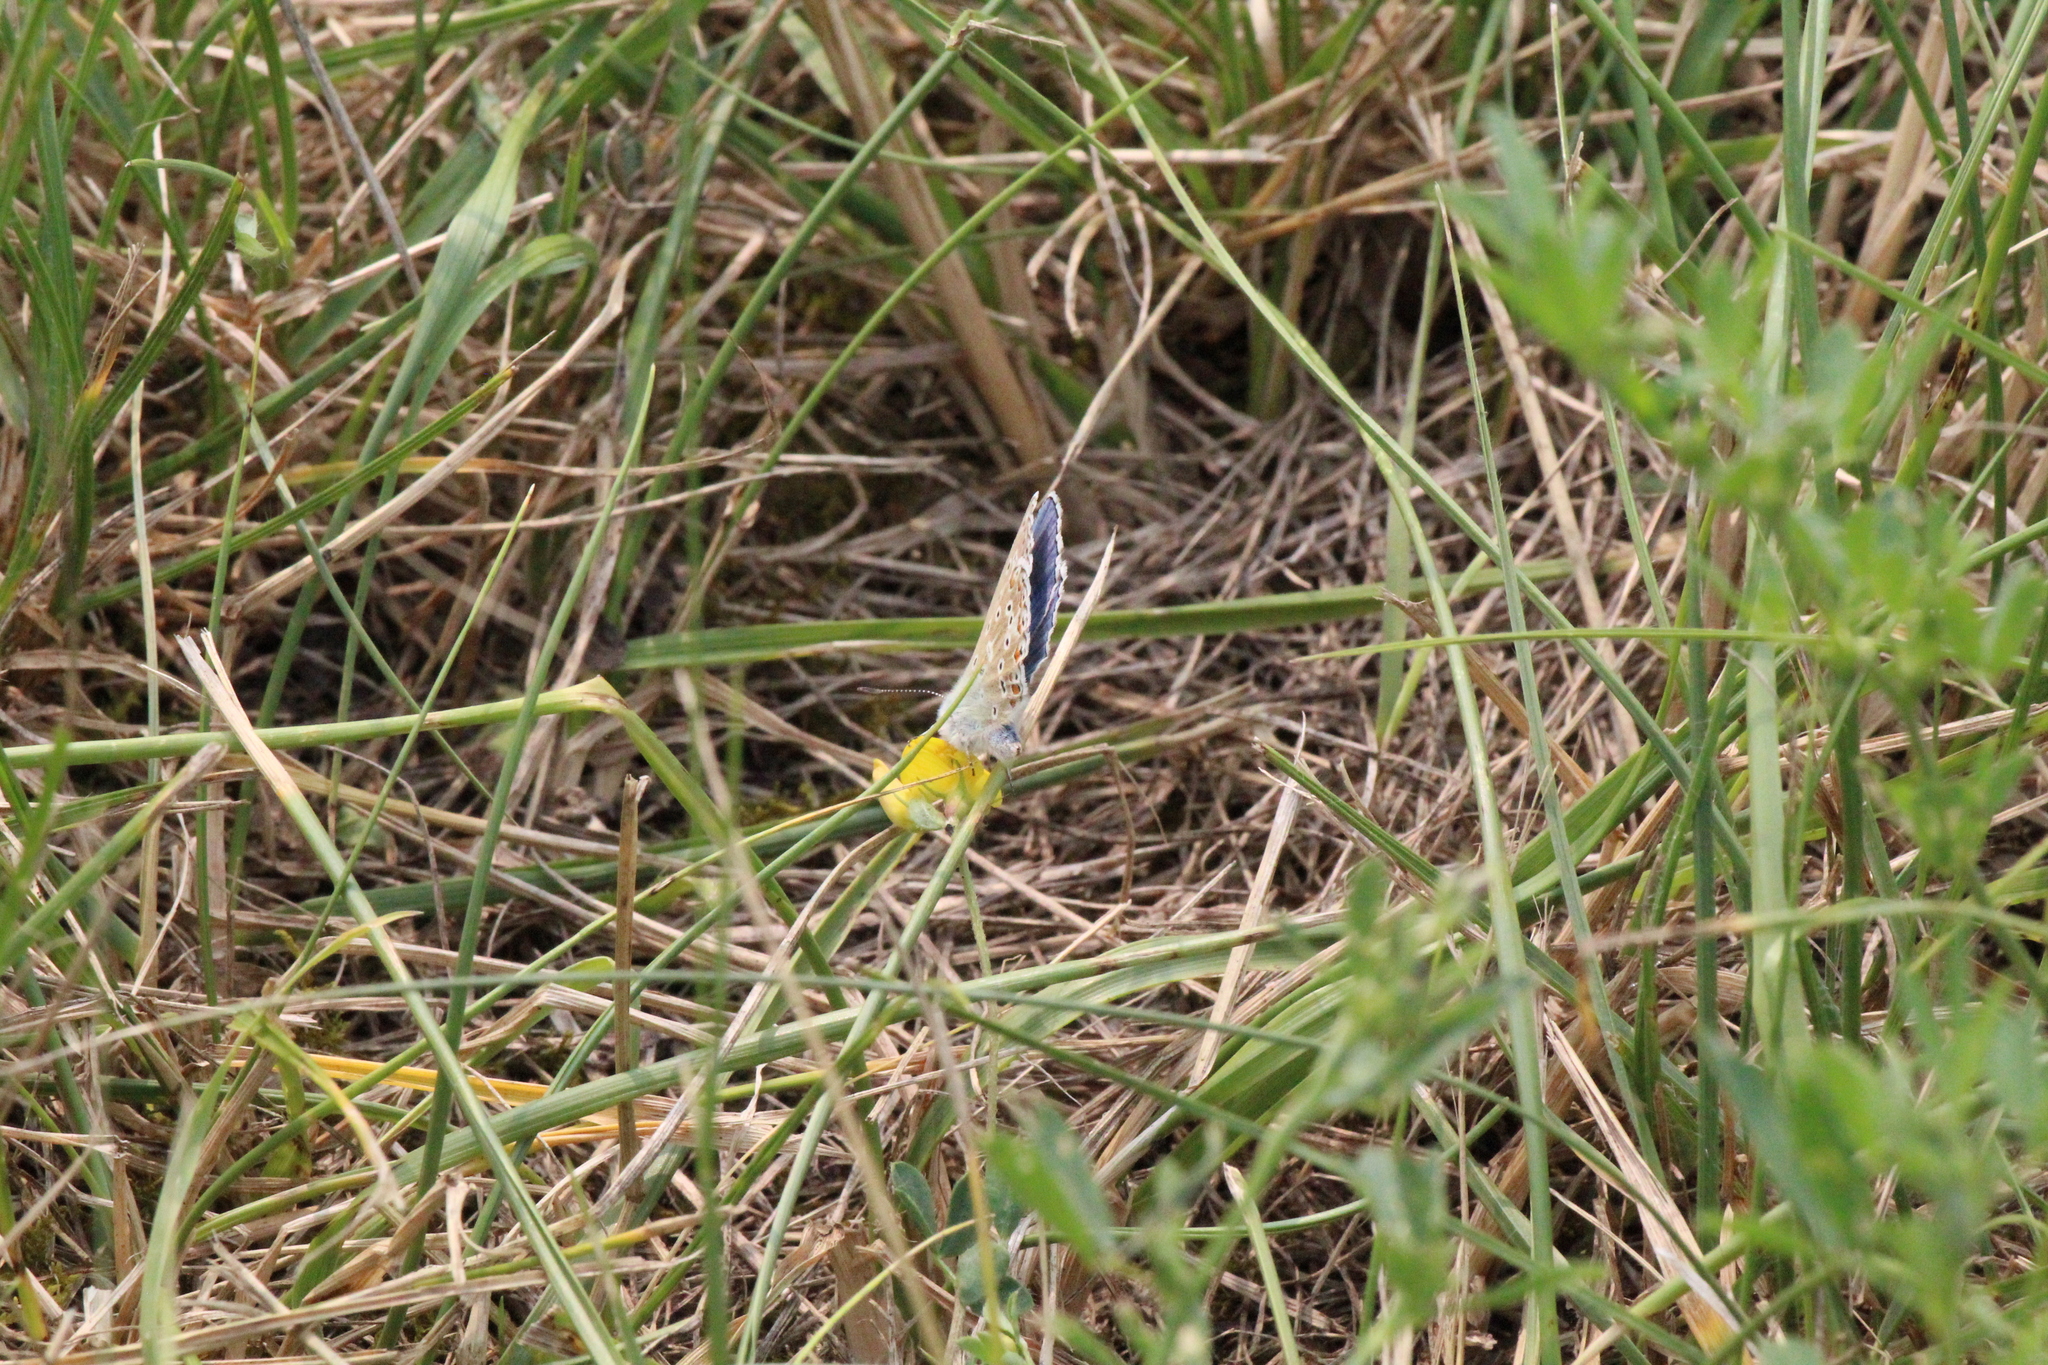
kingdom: Animalia
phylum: Arthropoda
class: Insecta
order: Lepidoptera
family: Lycaenidae
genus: Lysandra
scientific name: Lysandra bellargus
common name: Adonis blue
